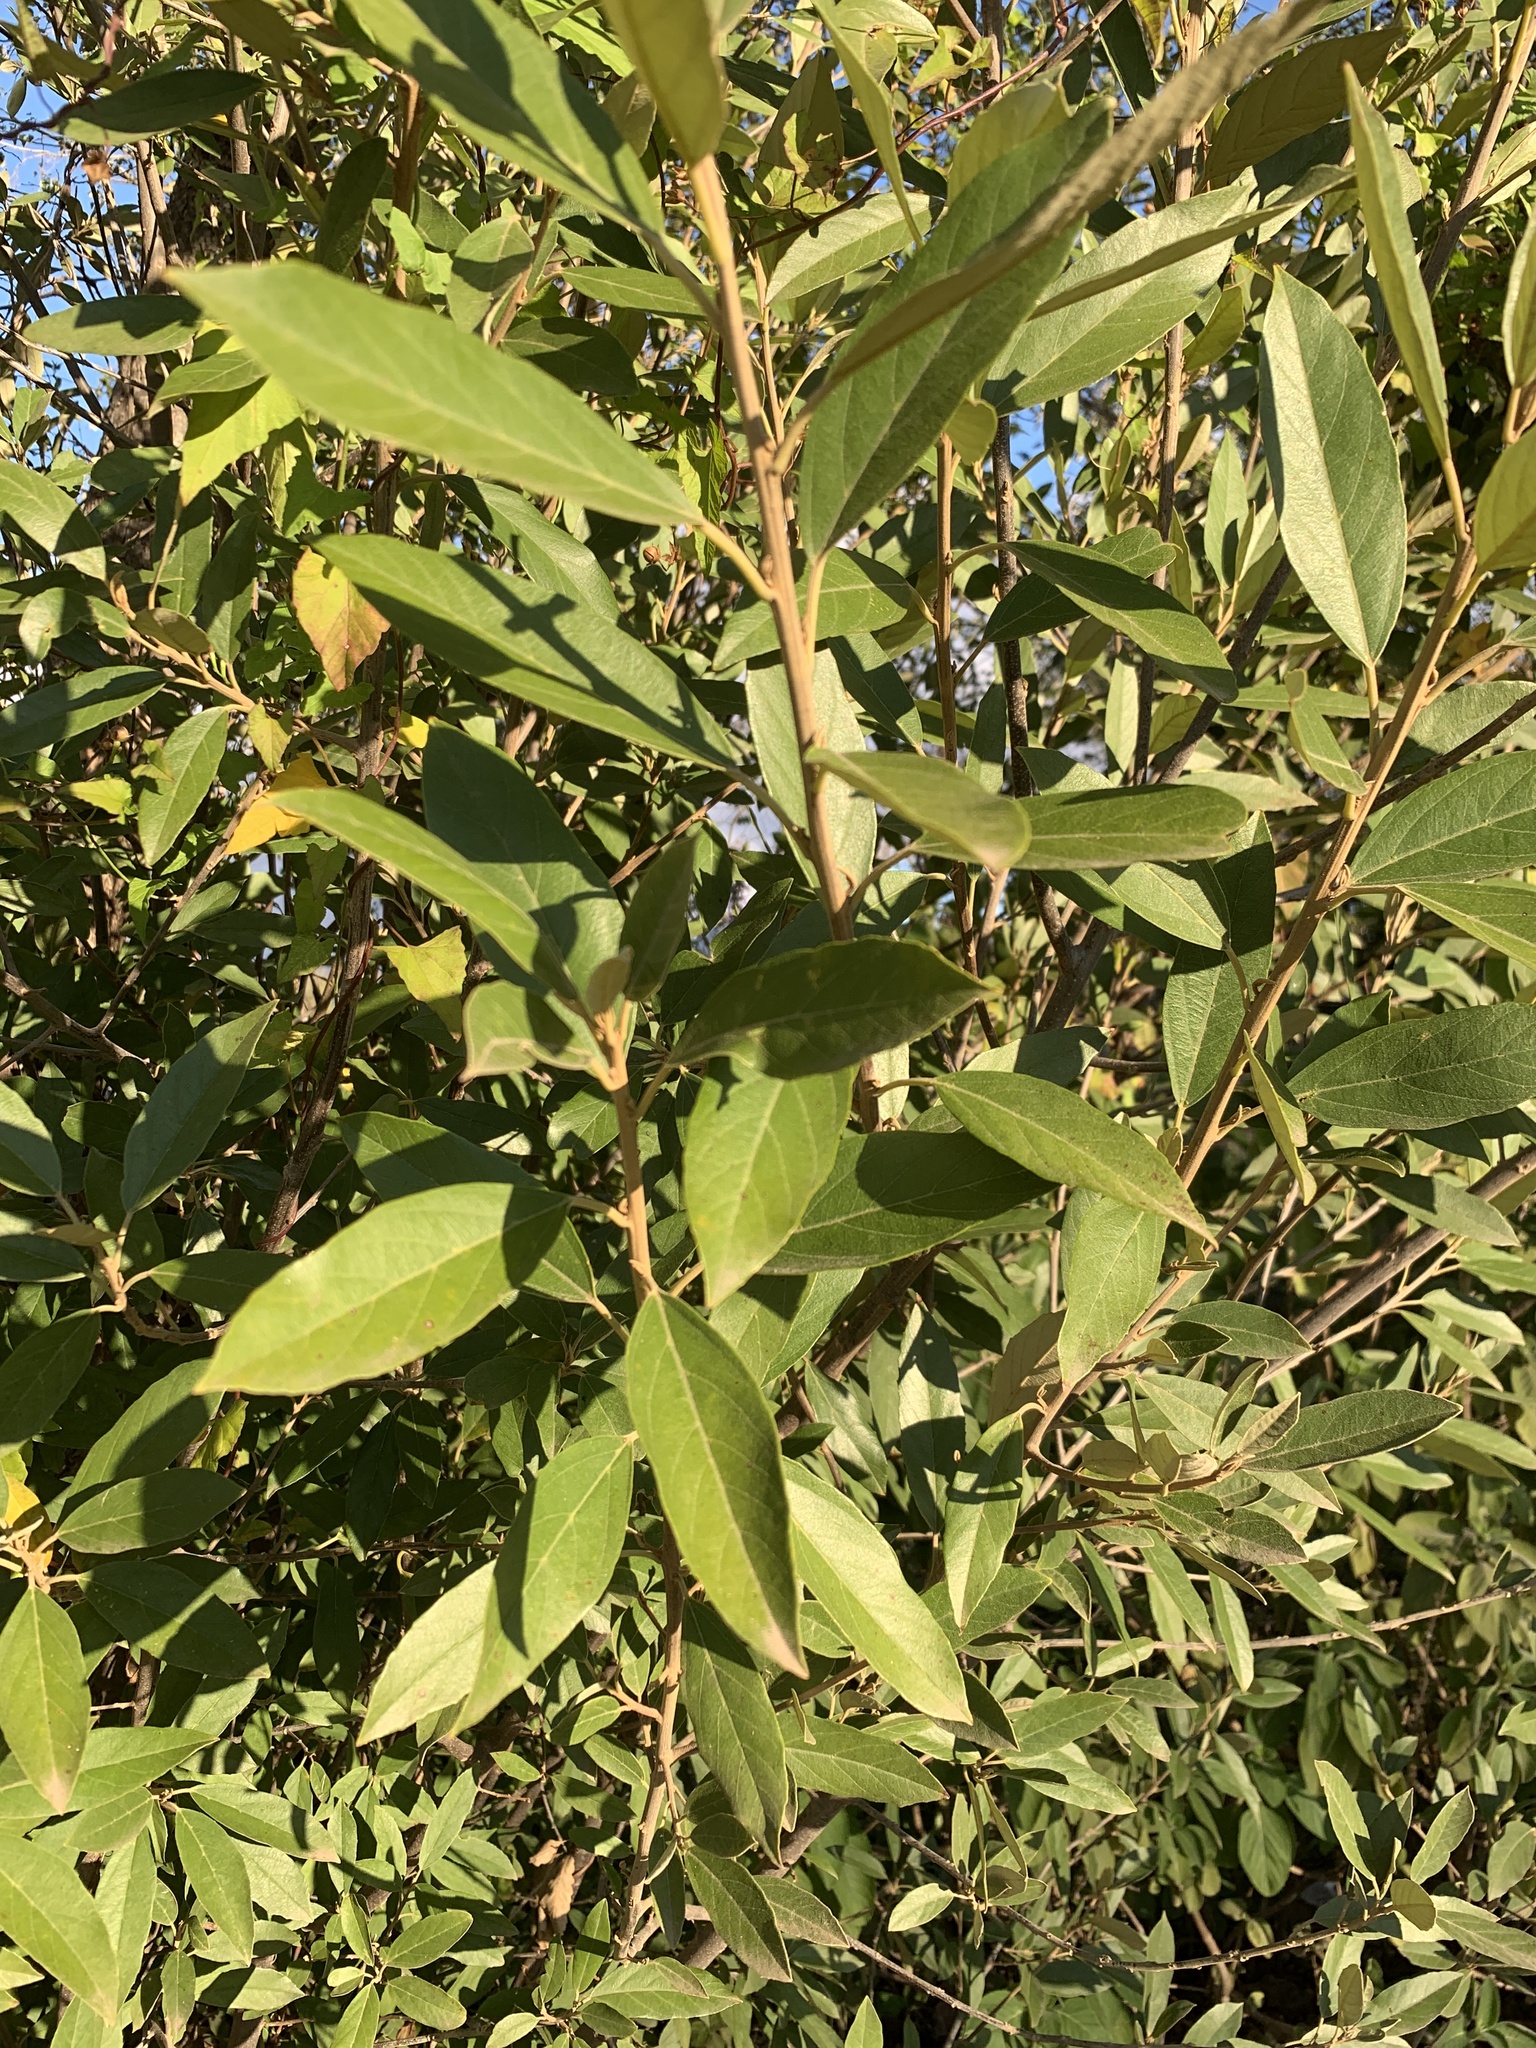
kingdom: Plantae
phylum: Tracheophyta
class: Magnoliopsida
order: Malpighiales
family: Achariaceae
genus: Kiggelaria
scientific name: Kiggelaria africana
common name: Wild peach
